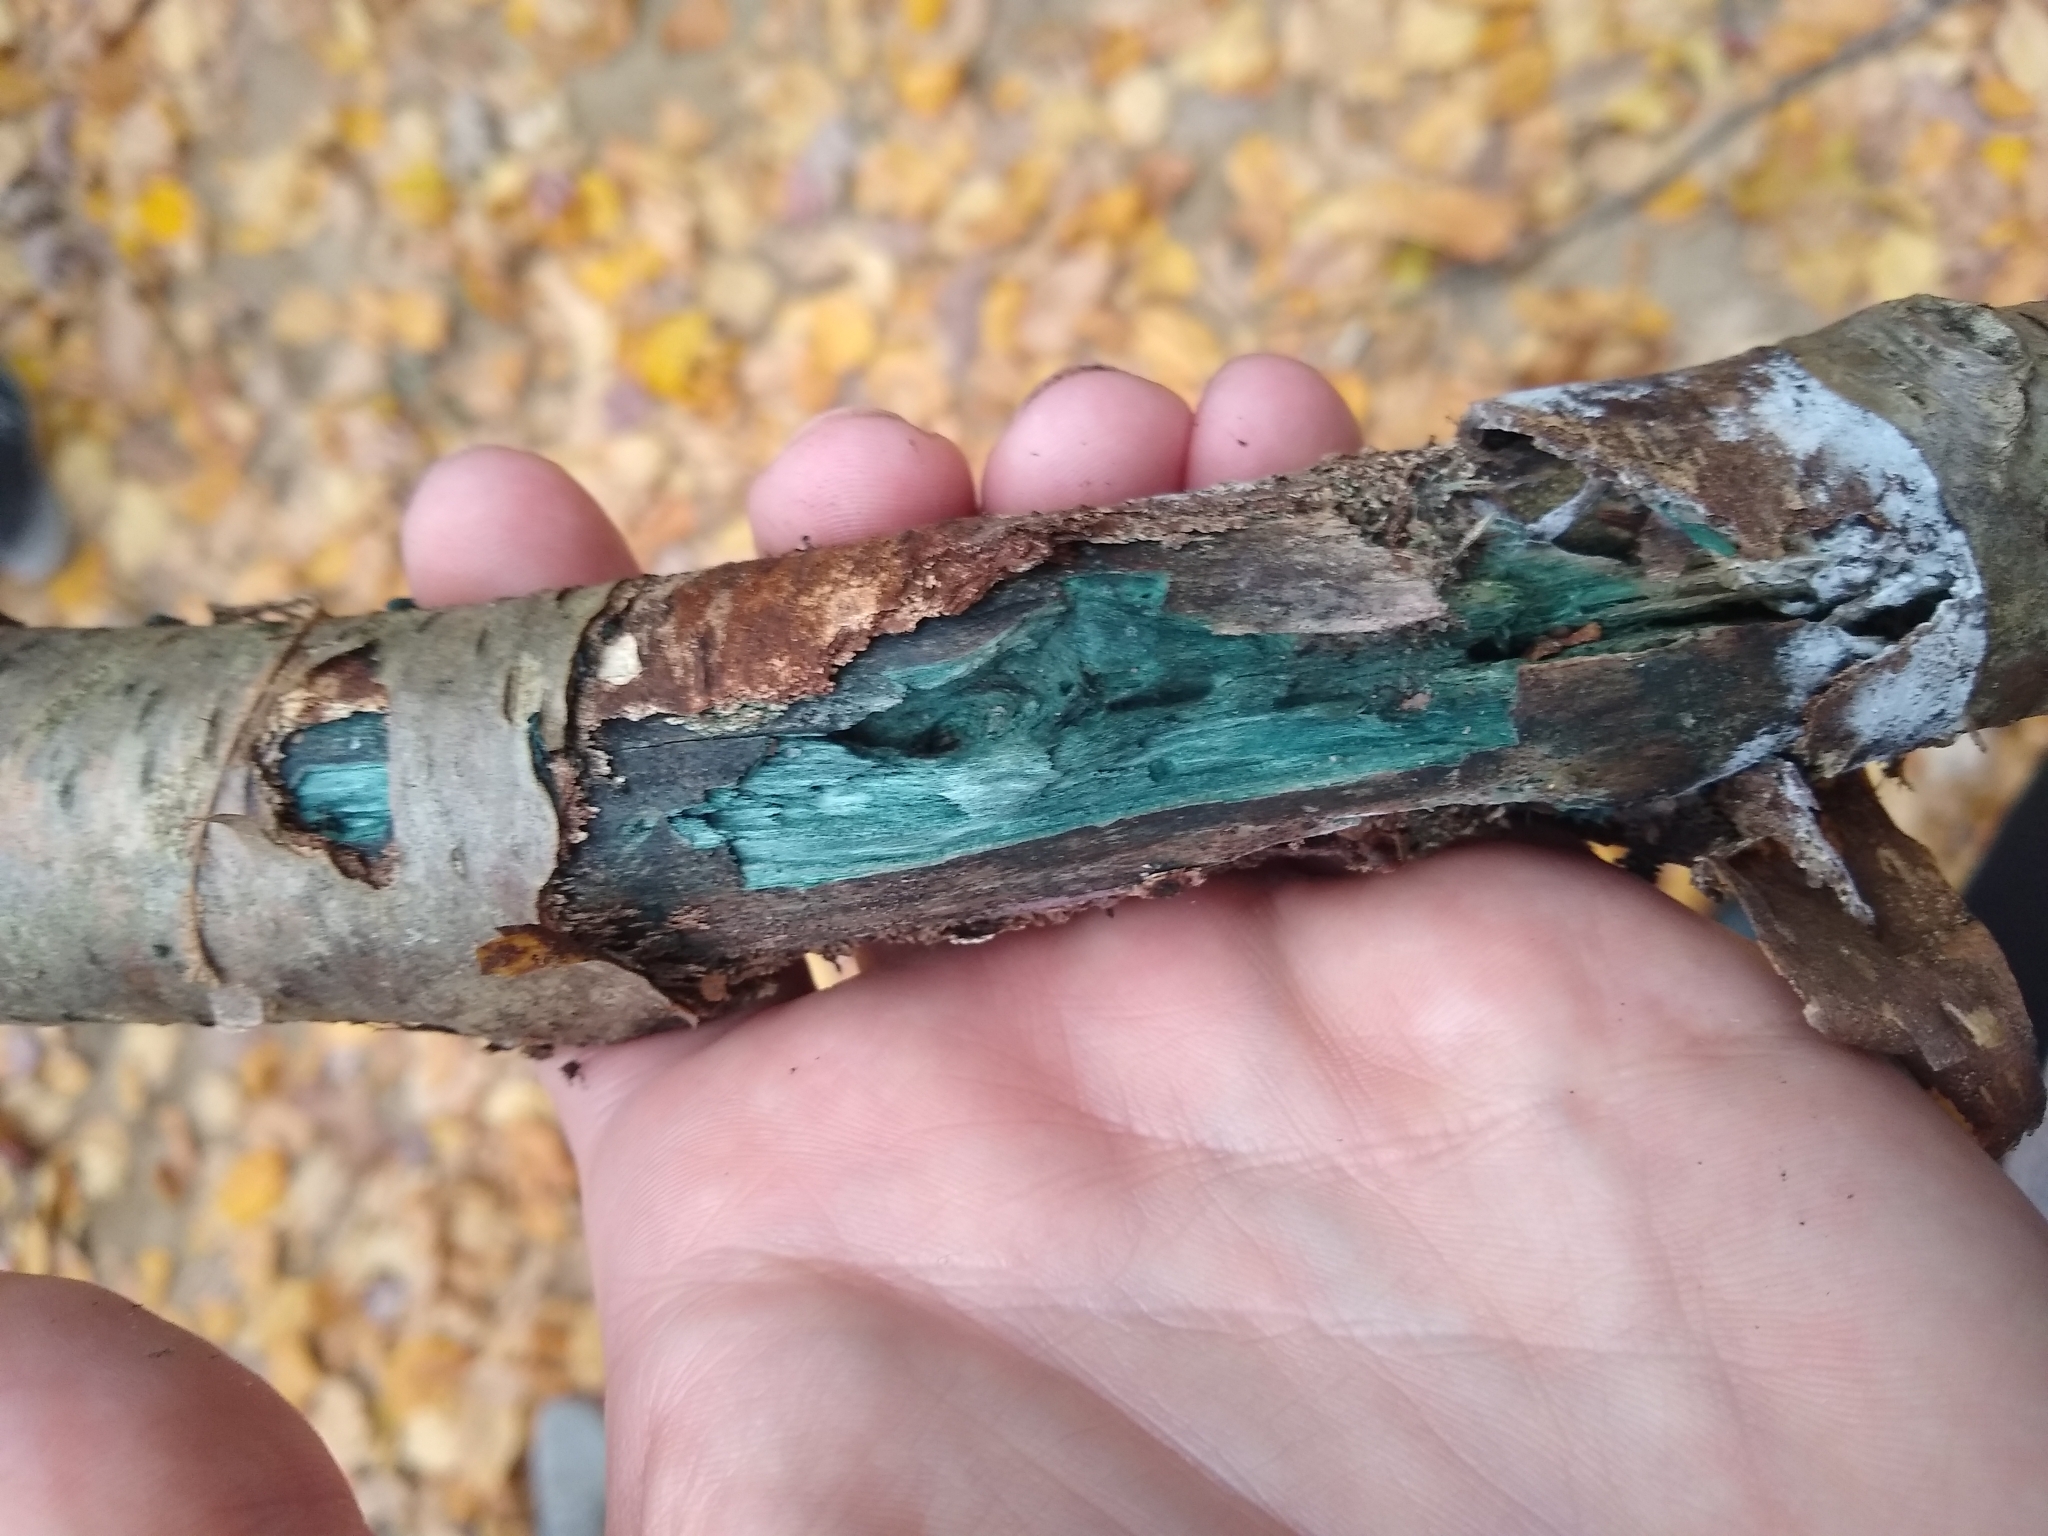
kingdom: Fungi
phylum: Ascomycota
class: Leotiomycetes
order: Helotiales
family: Chlorociboriaceae
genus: Chlorociboria
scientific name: Chlorociboria
